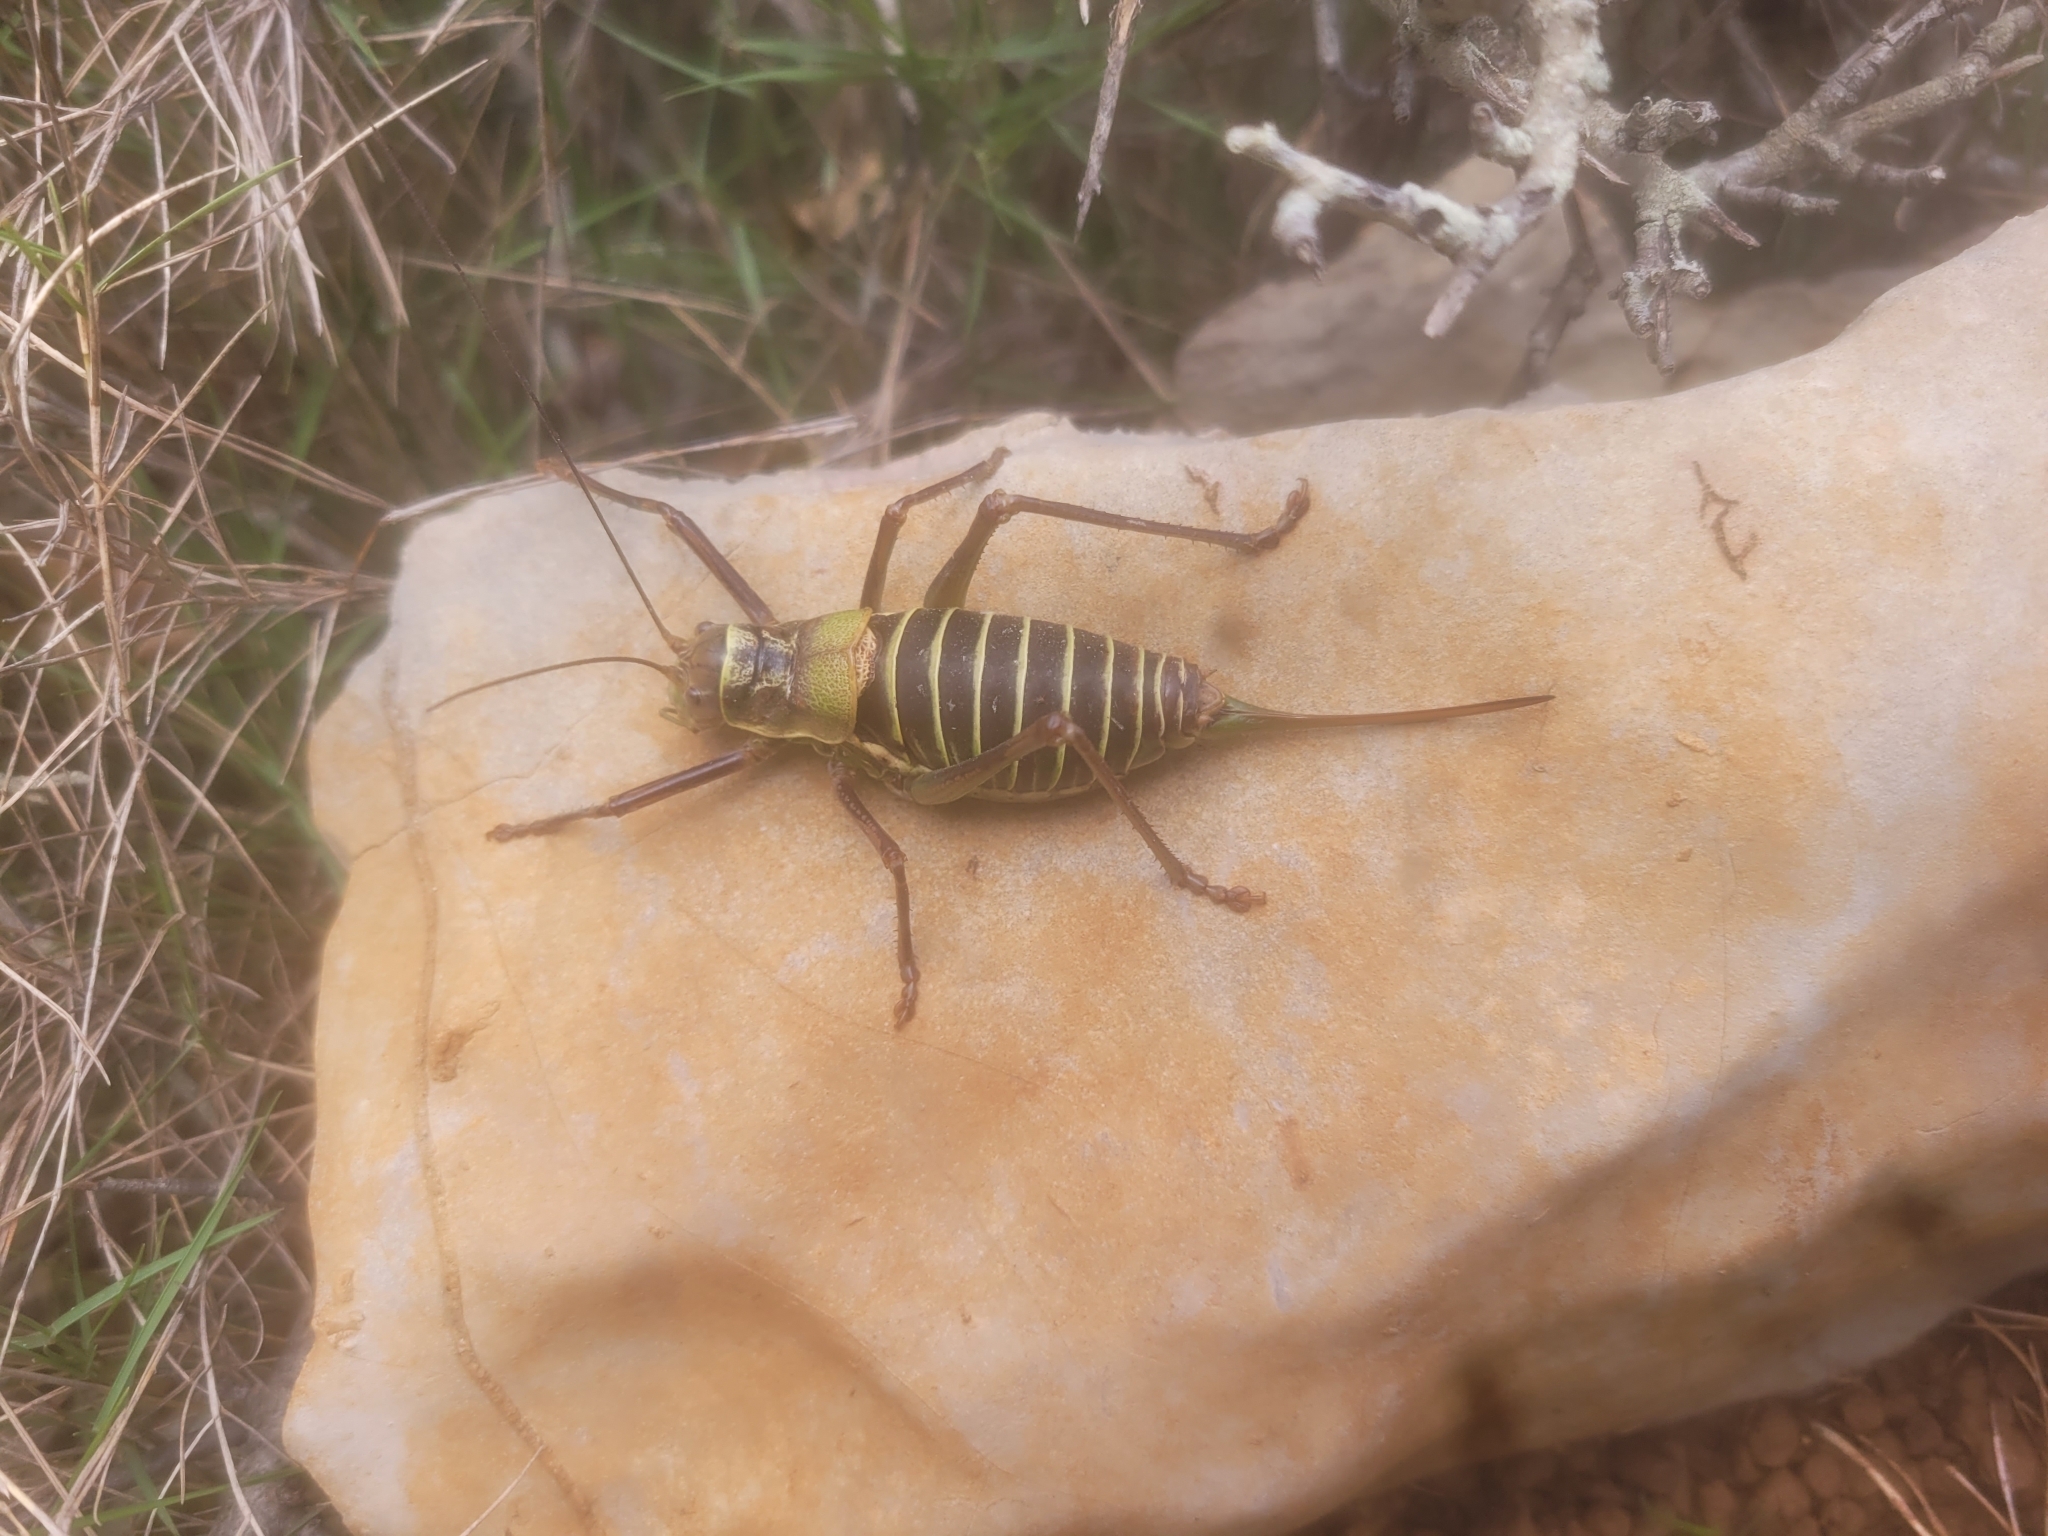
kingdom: Animalia
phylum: Arthropoda
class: Insecta
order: Orthoptera
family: Tettigoniidae
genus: Ephippiger
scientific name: Ephippiger diurnus
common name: Western saddle bush-cricket
